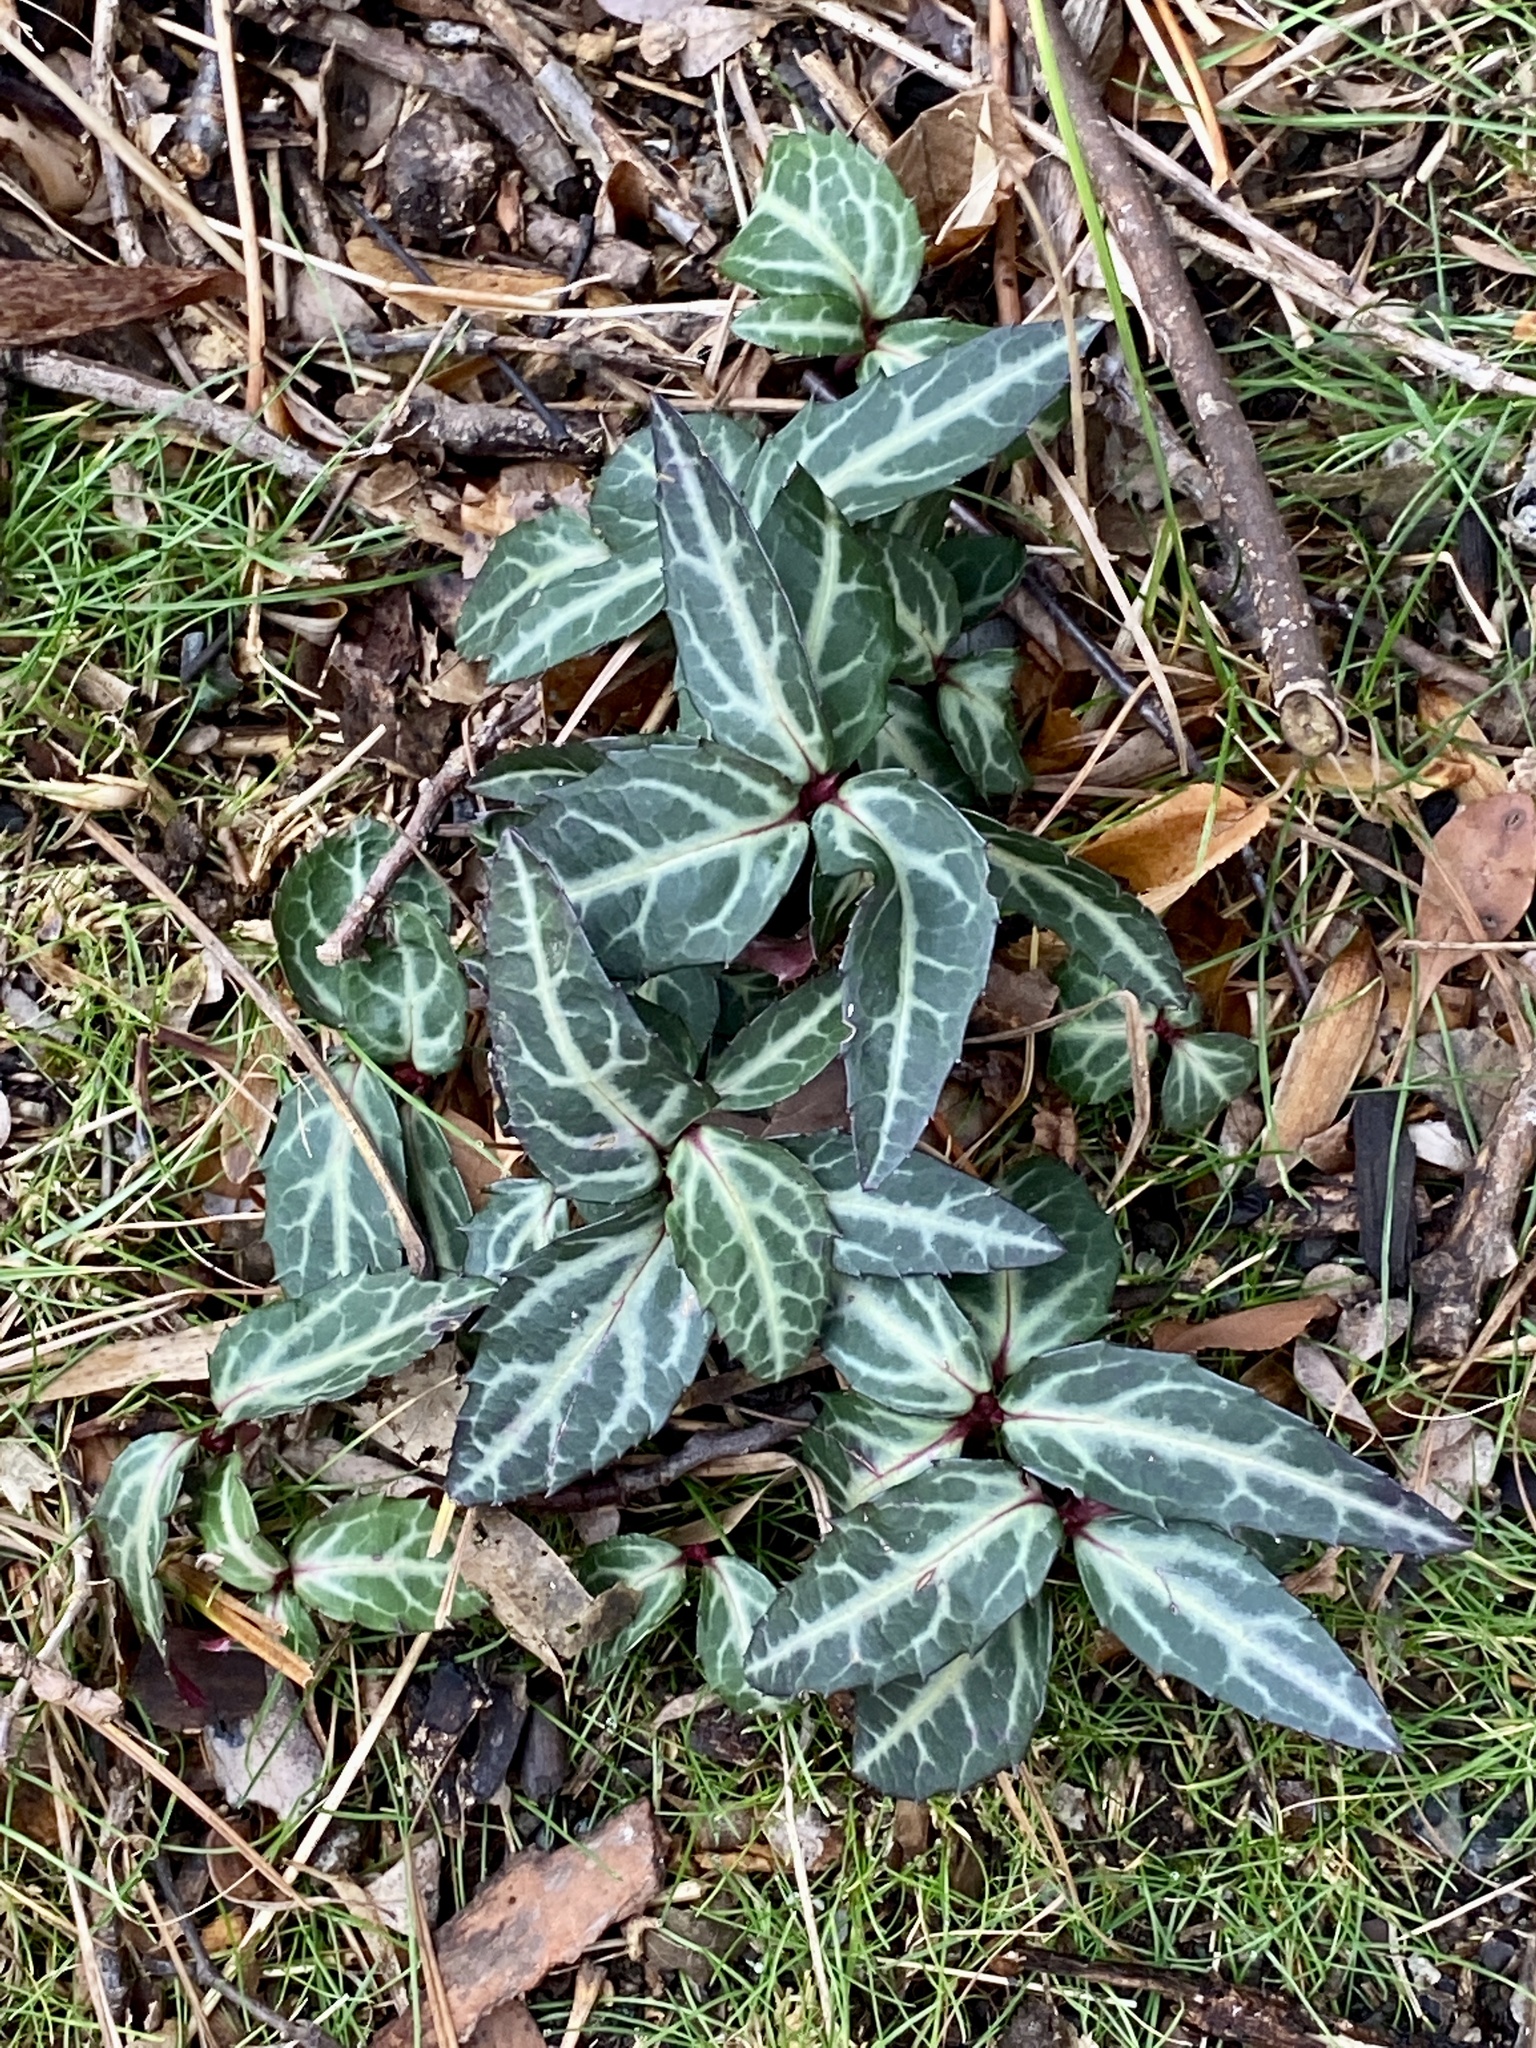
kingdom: Plantae
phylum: Tracheophyta
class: Magnoliopsida
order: Ericales
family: Ericaceae
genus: Chimaphila
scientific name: Chimaphila maculata
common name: Spotted pipsissewa
